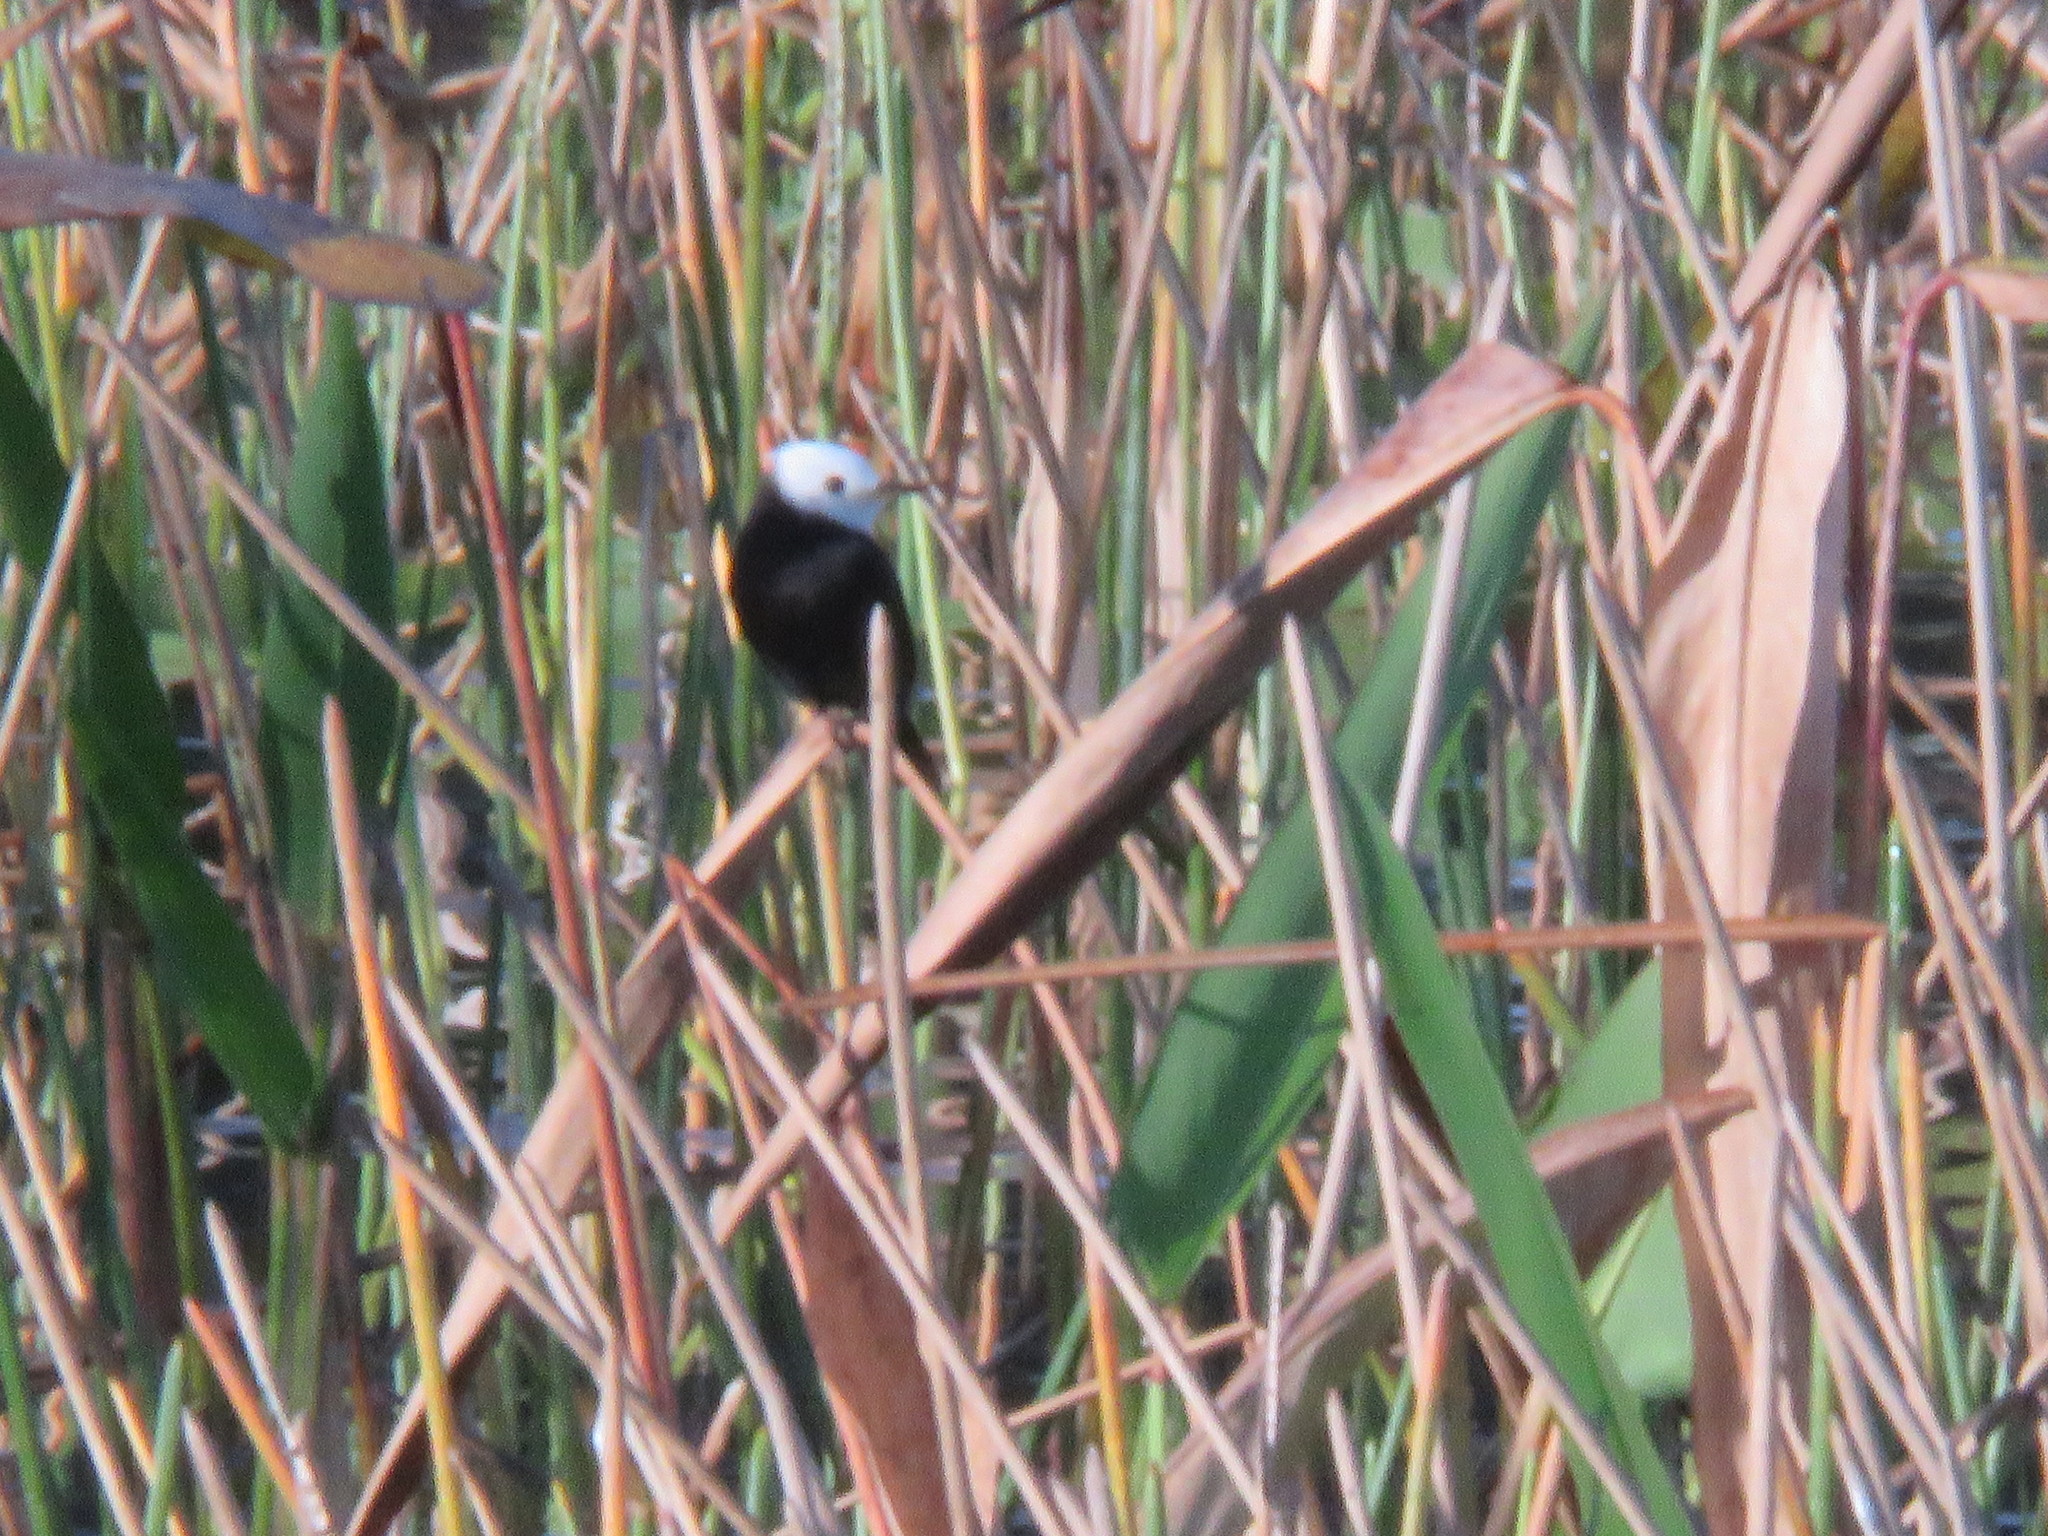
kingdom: Animalia
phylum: Chordata
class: Aves
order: Passeriformes
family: Tyrannidae
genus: Arundinicola
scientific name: Arundinicola leucocephala
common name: White-headed marsh tyrant
